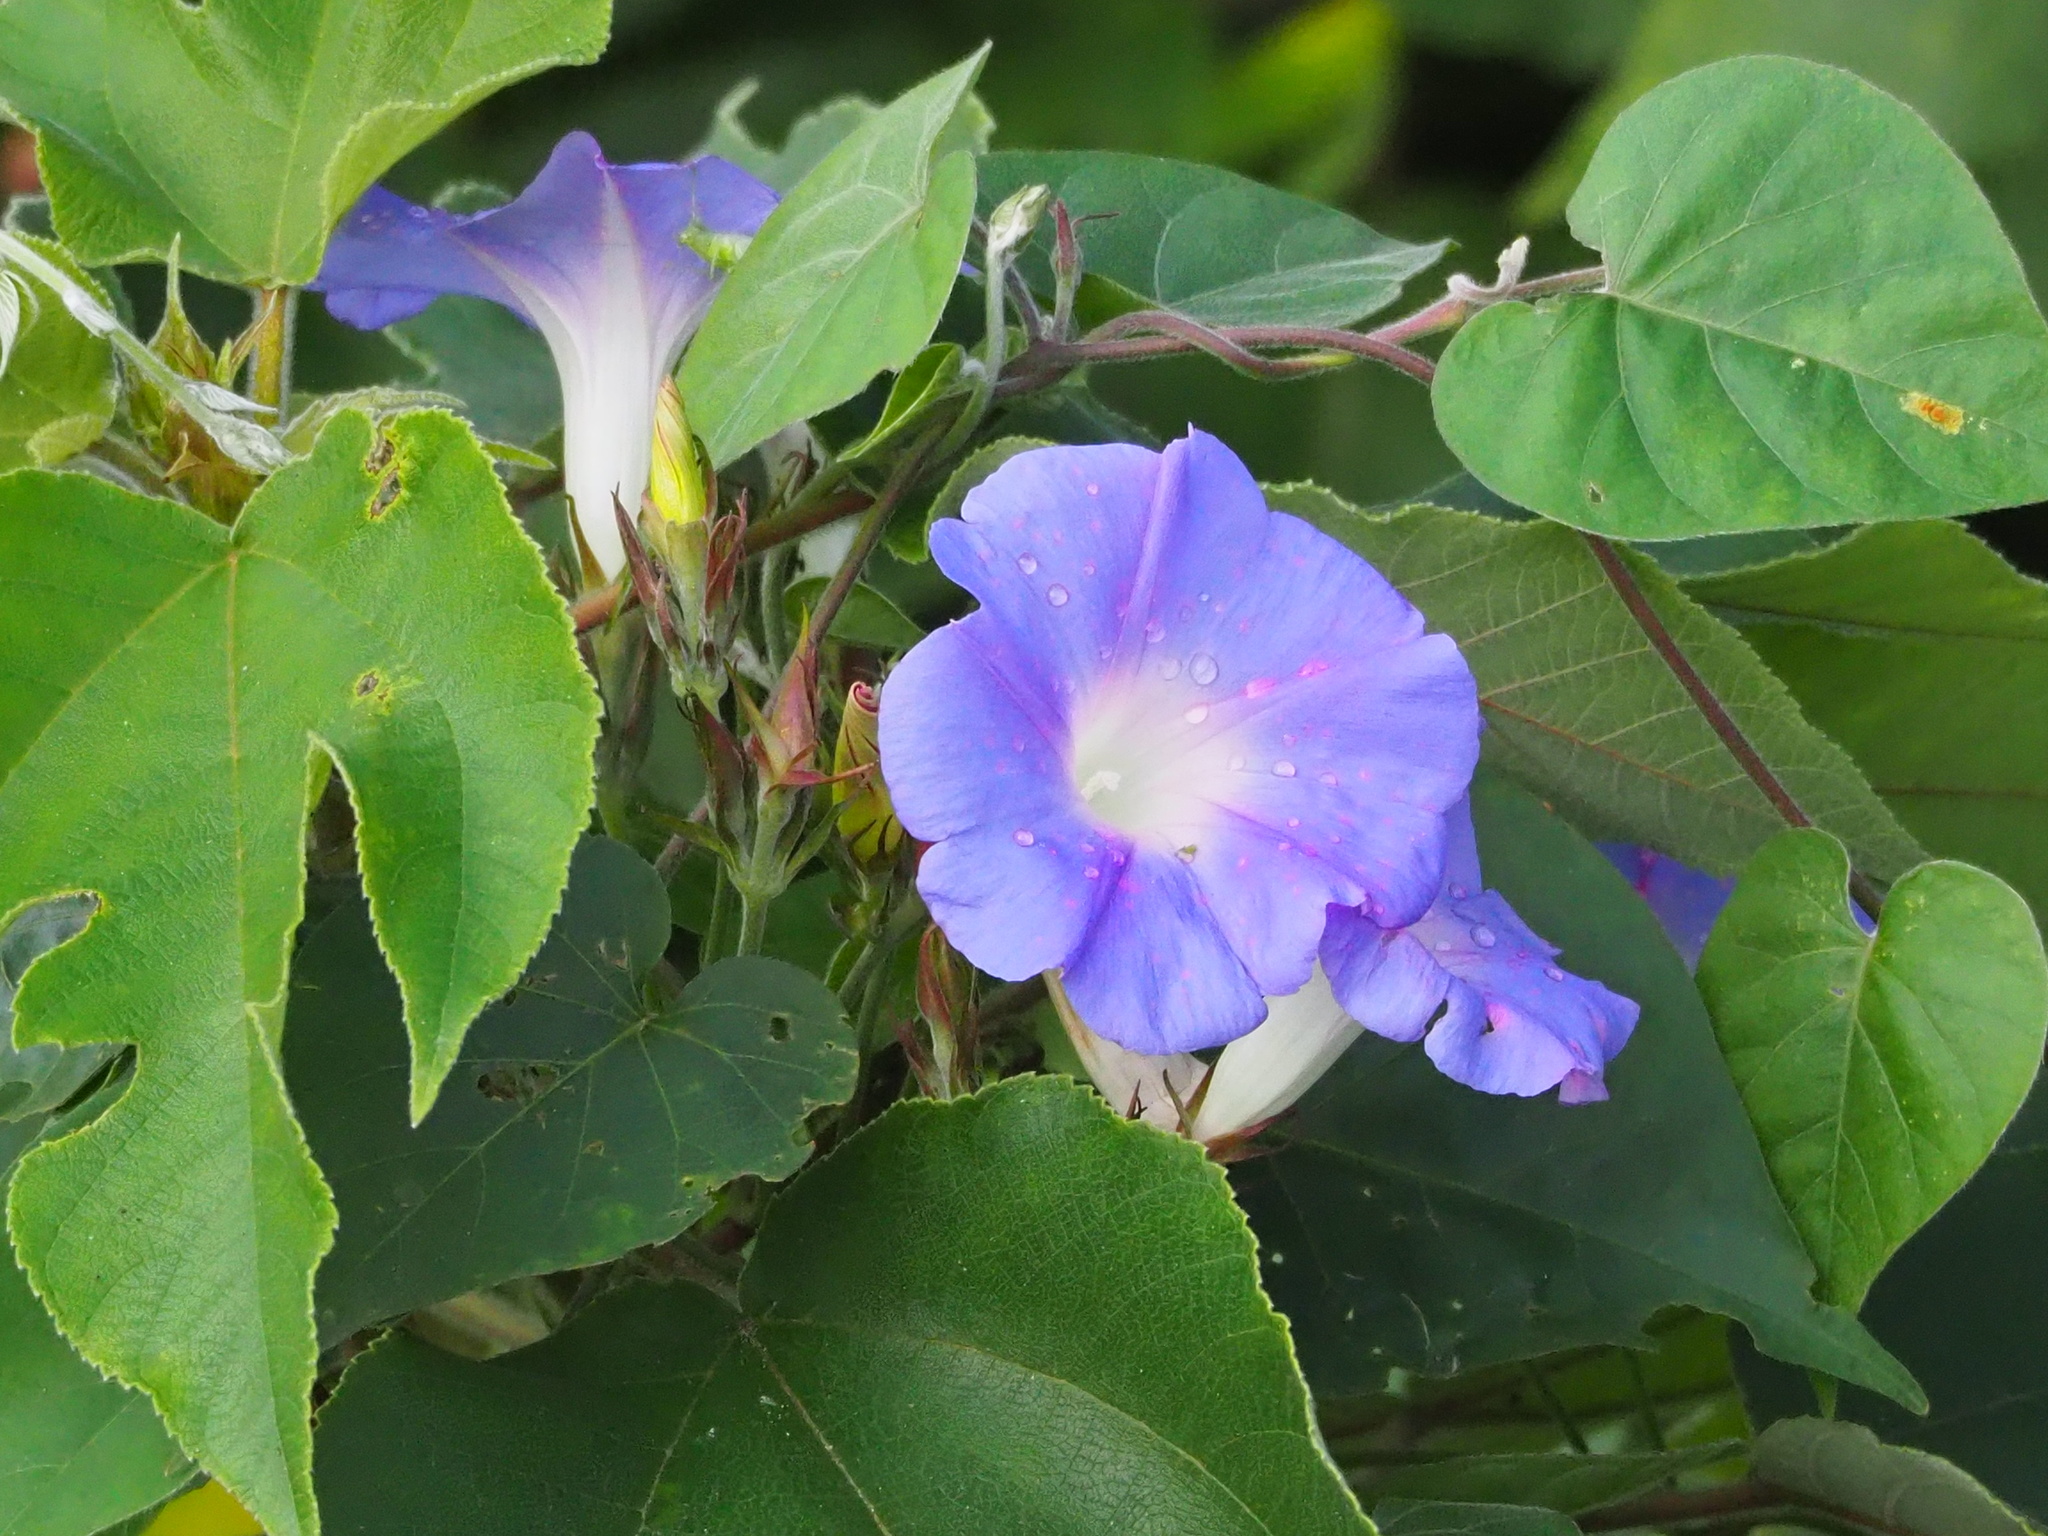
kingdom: Plantae
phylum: Tracheophyta
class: Magnoliopsida
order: Solanales
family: Convolvulaceae
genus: Ipomoea
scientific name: Ipomoea indica
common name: Blue dawnflower
